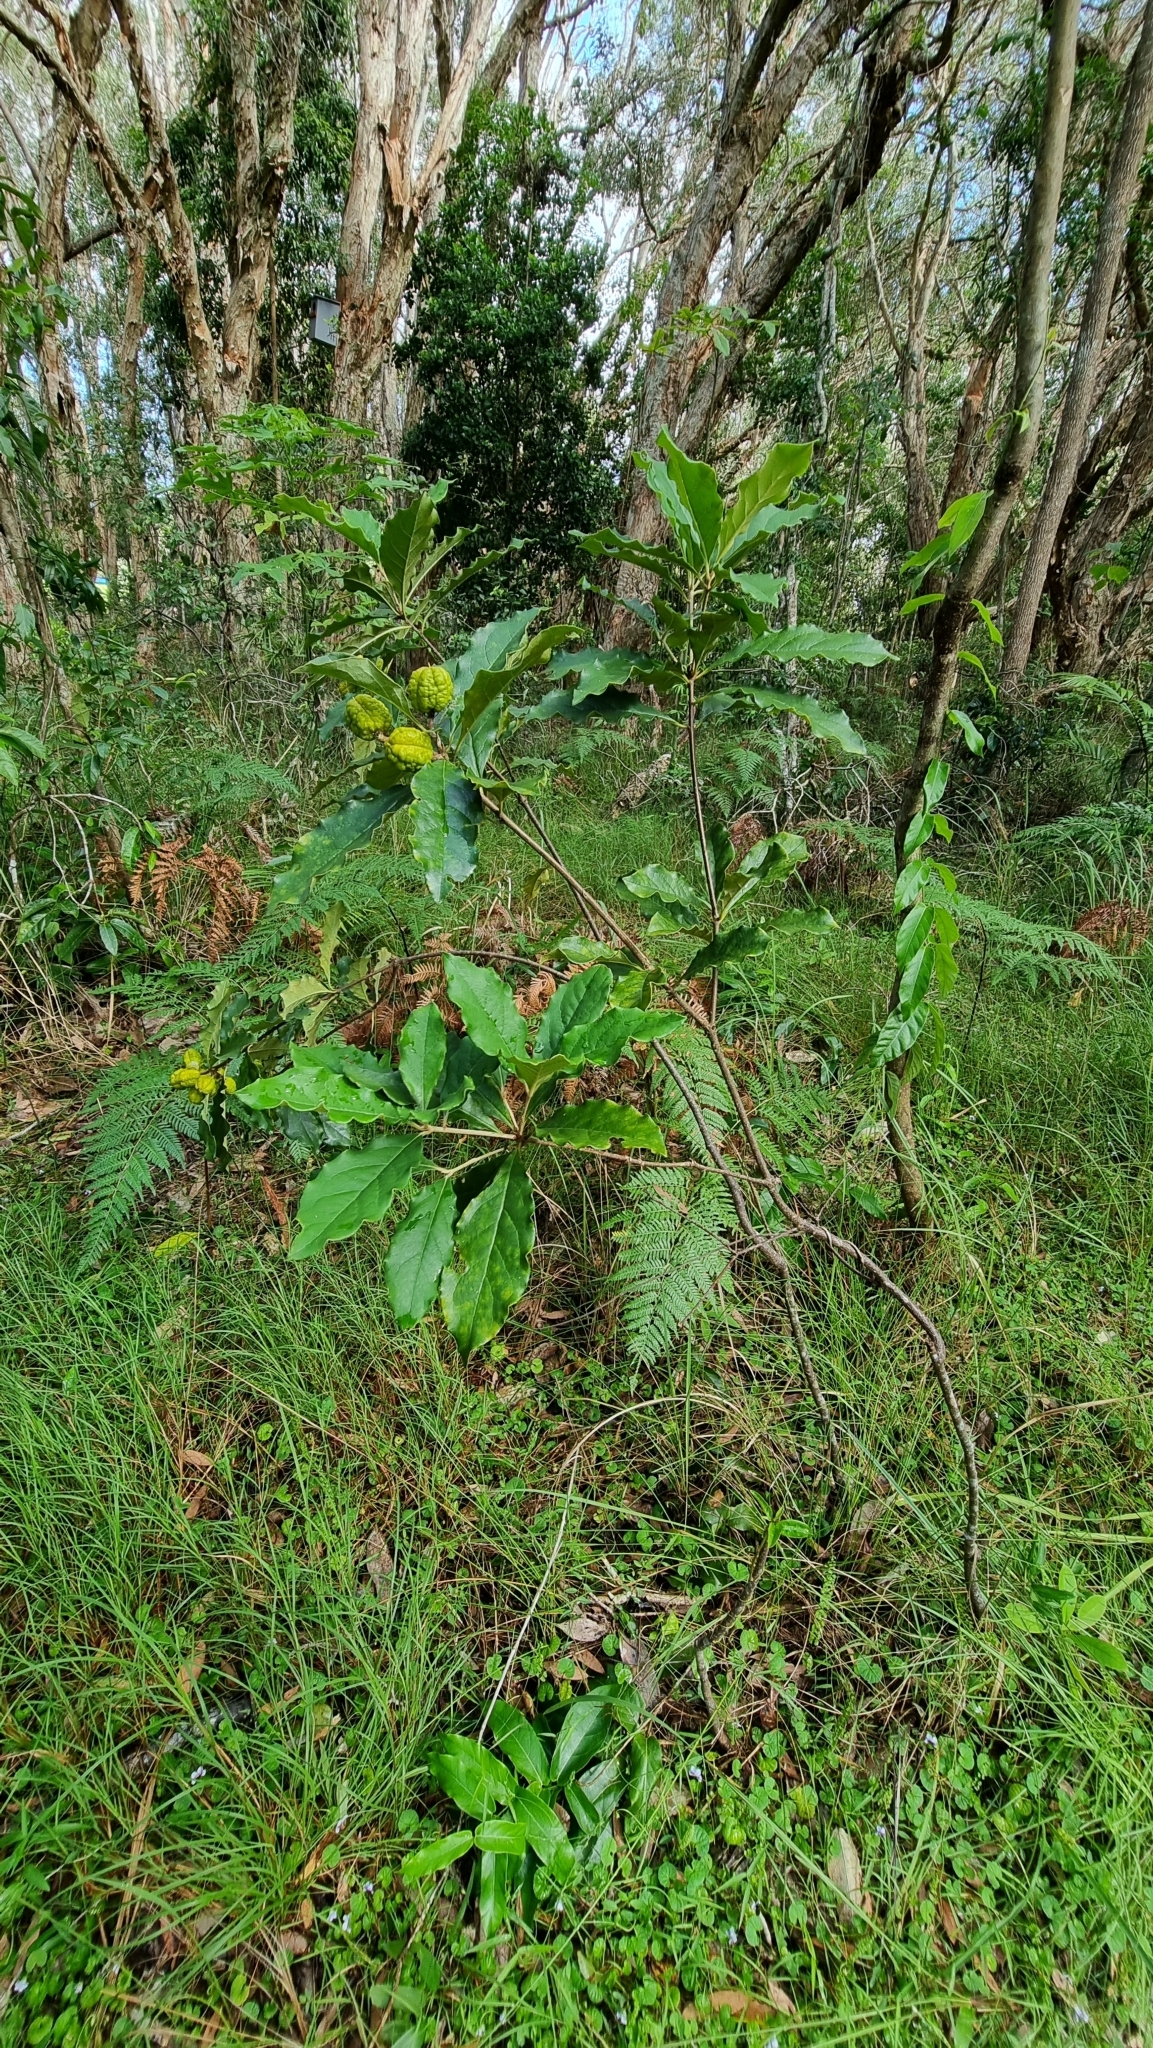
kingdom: Plantae
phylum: Tracheophyta
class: Magnoliopsida
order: Apiales
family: Pittosporaceae
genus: Pittosporum
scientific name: Pittosporum revolutum
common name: Brisbane-laurel
